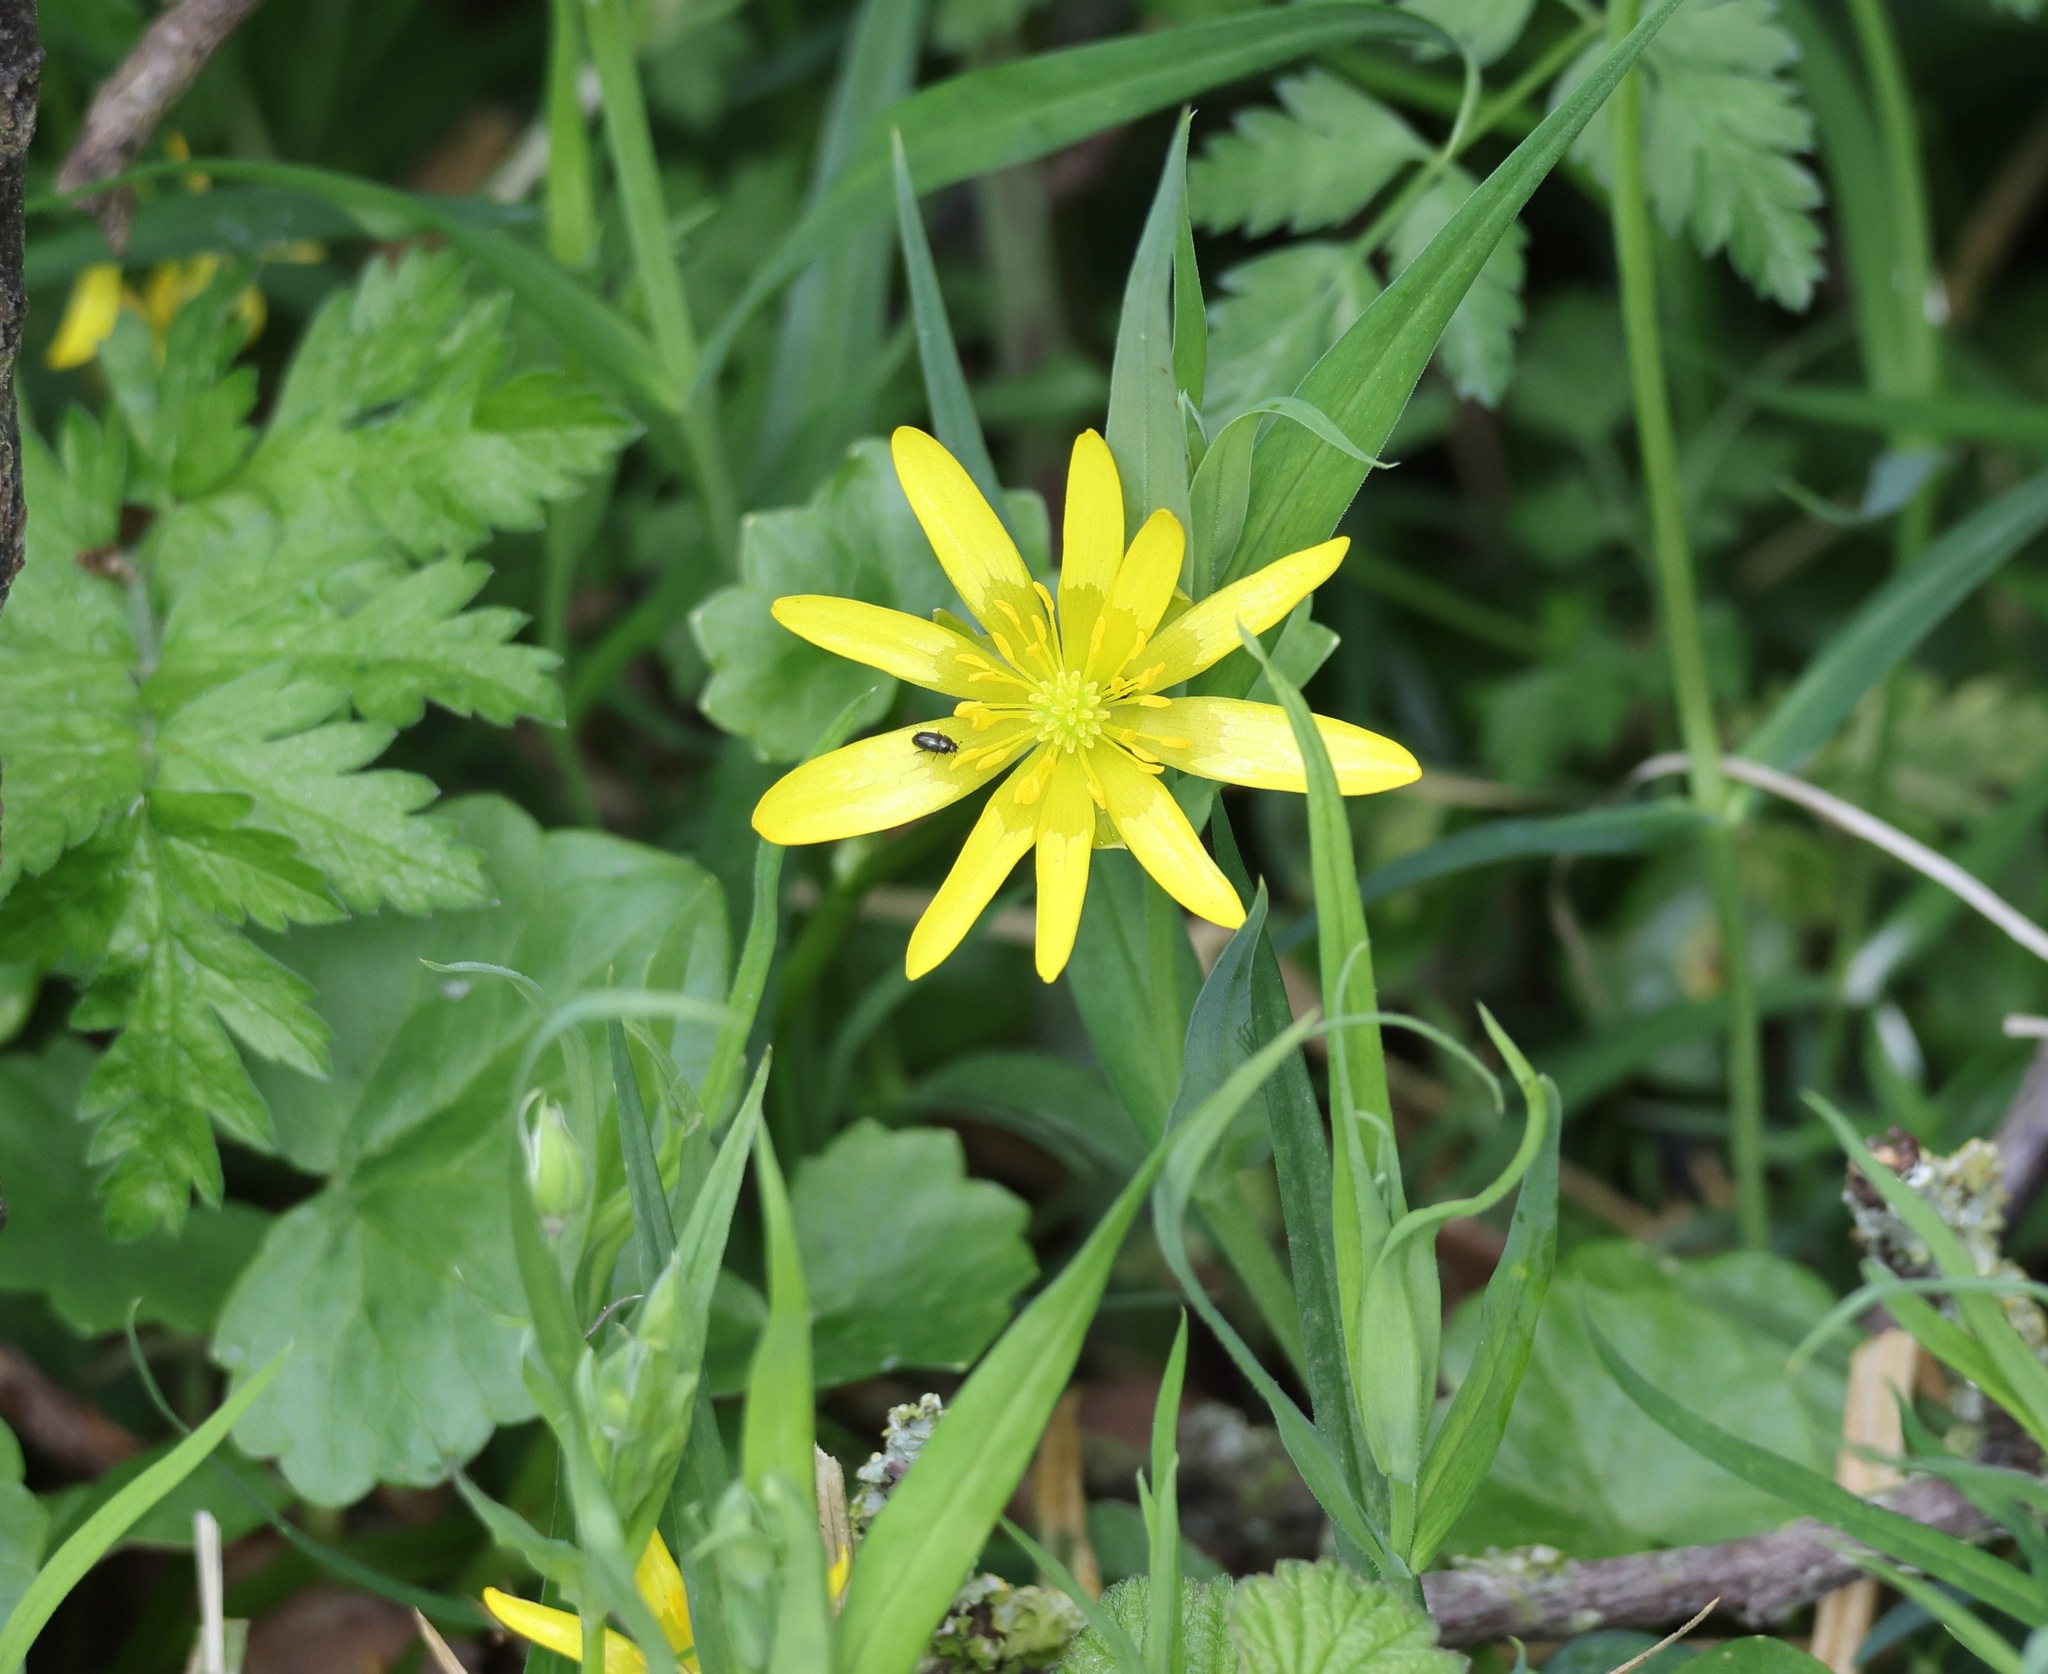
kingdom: Plantae
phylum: Tracheophyta
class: Magnoliopsida
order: Ranunculales
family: Ranunculaceae
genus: Ficaria
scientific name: Ficaria verna
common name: Lesser celandine
